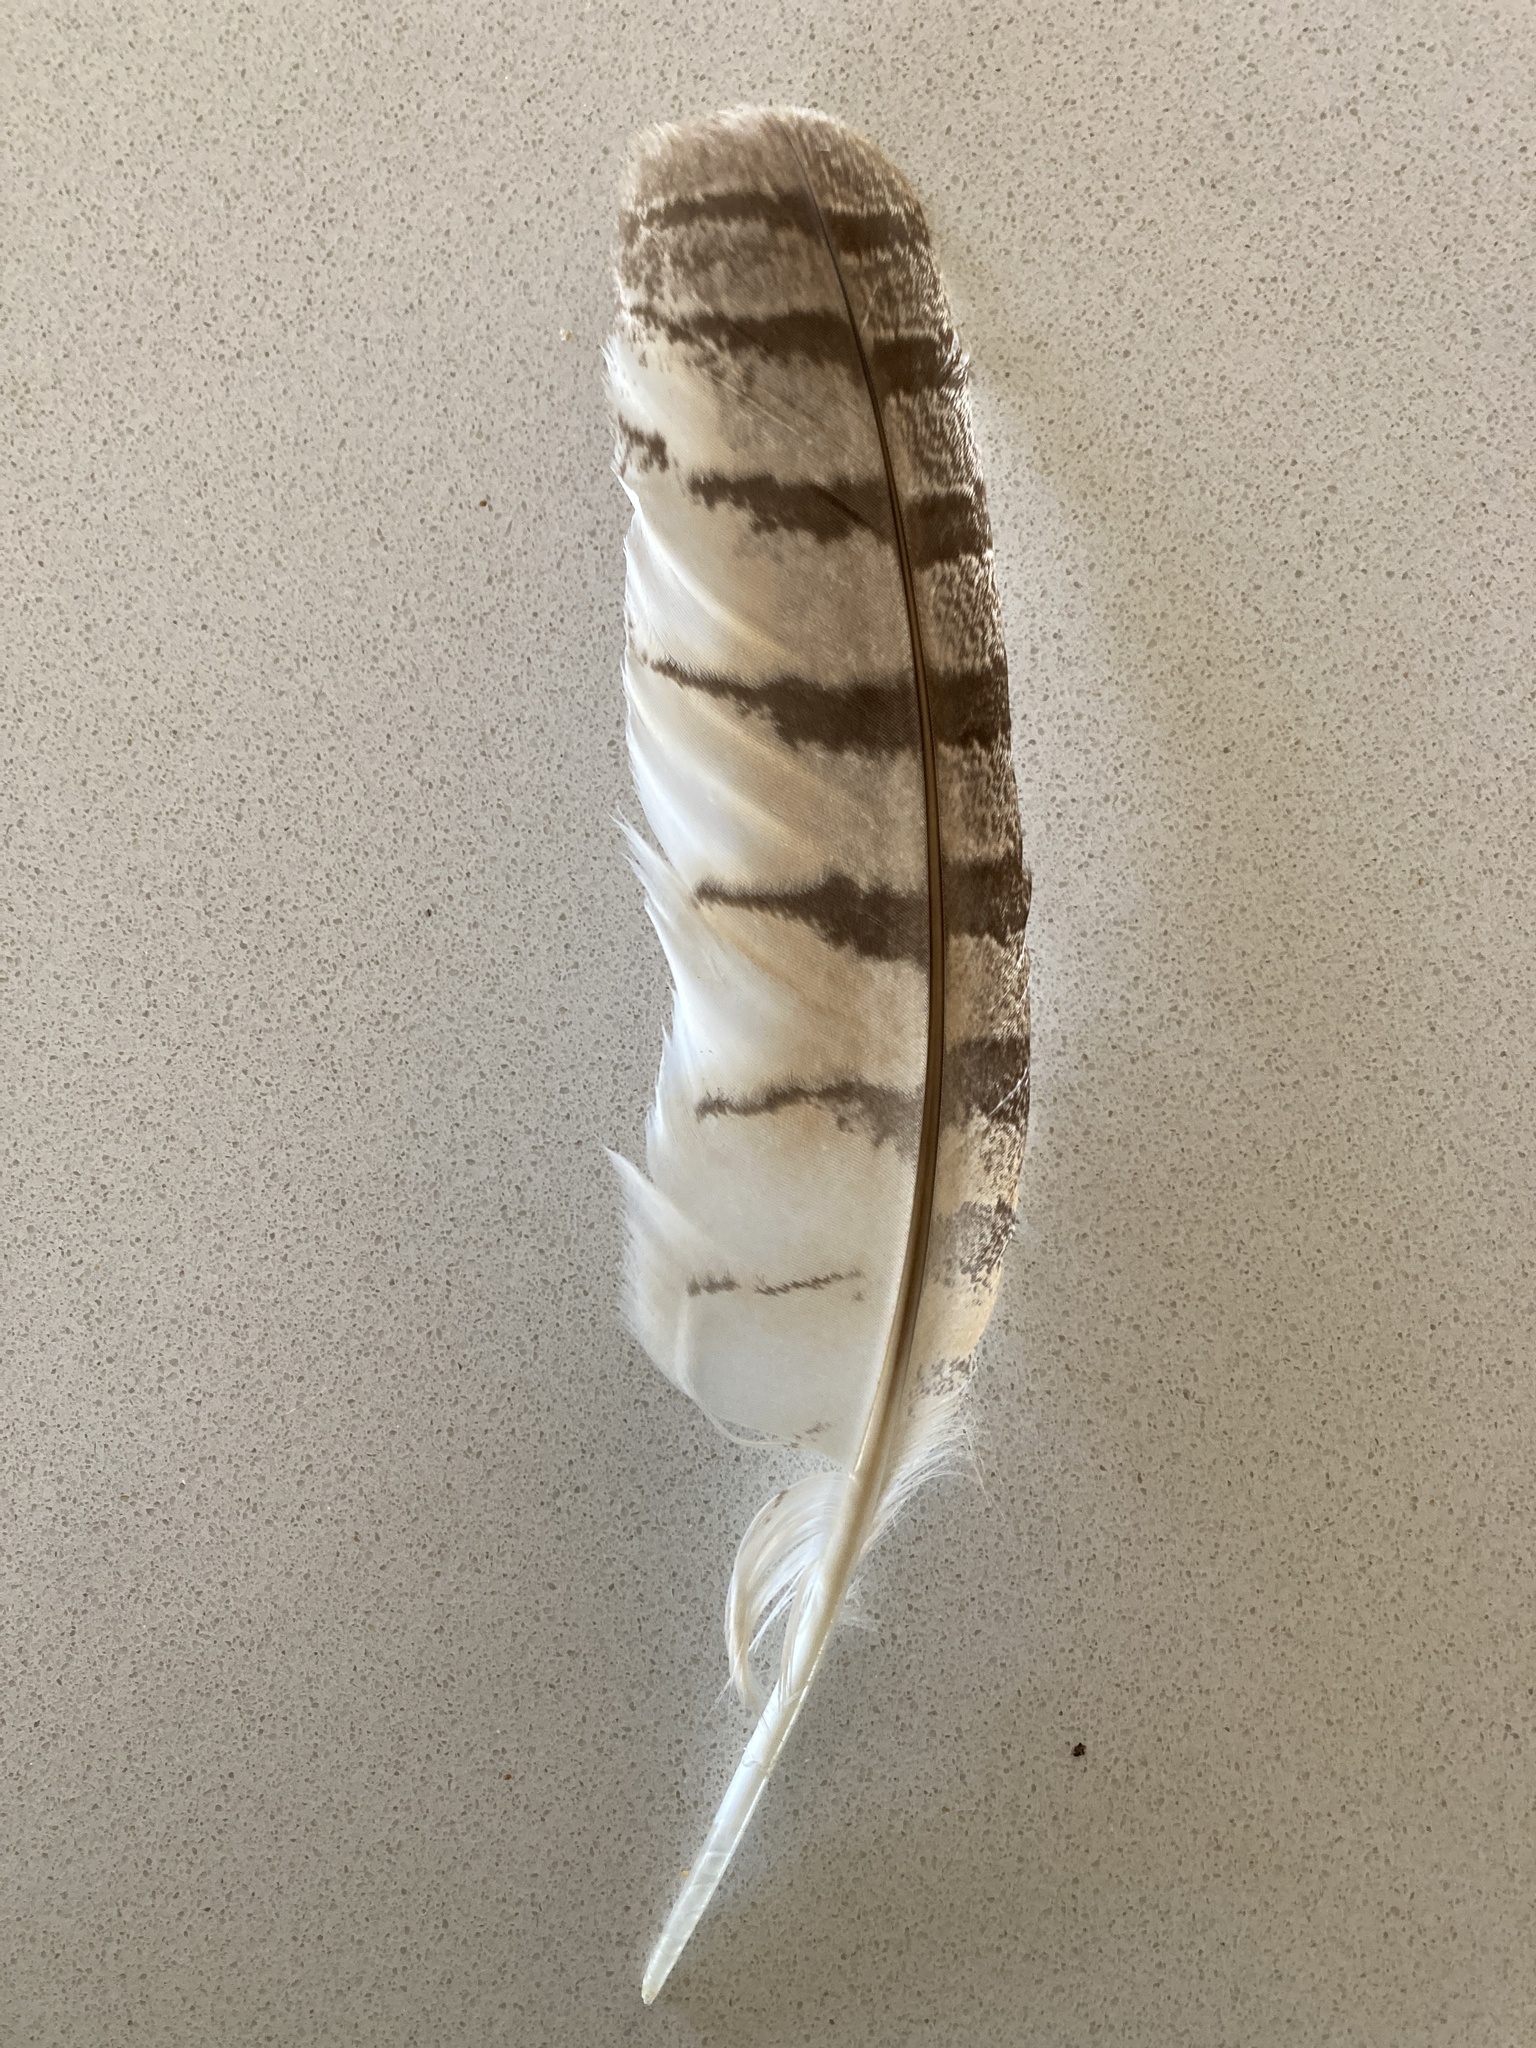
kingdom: Animalia
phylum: Chordata
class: Aves
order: Strigiformes
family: Strigidae
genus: Bubo
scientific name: Bubo virginianus
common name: Great horned owl
